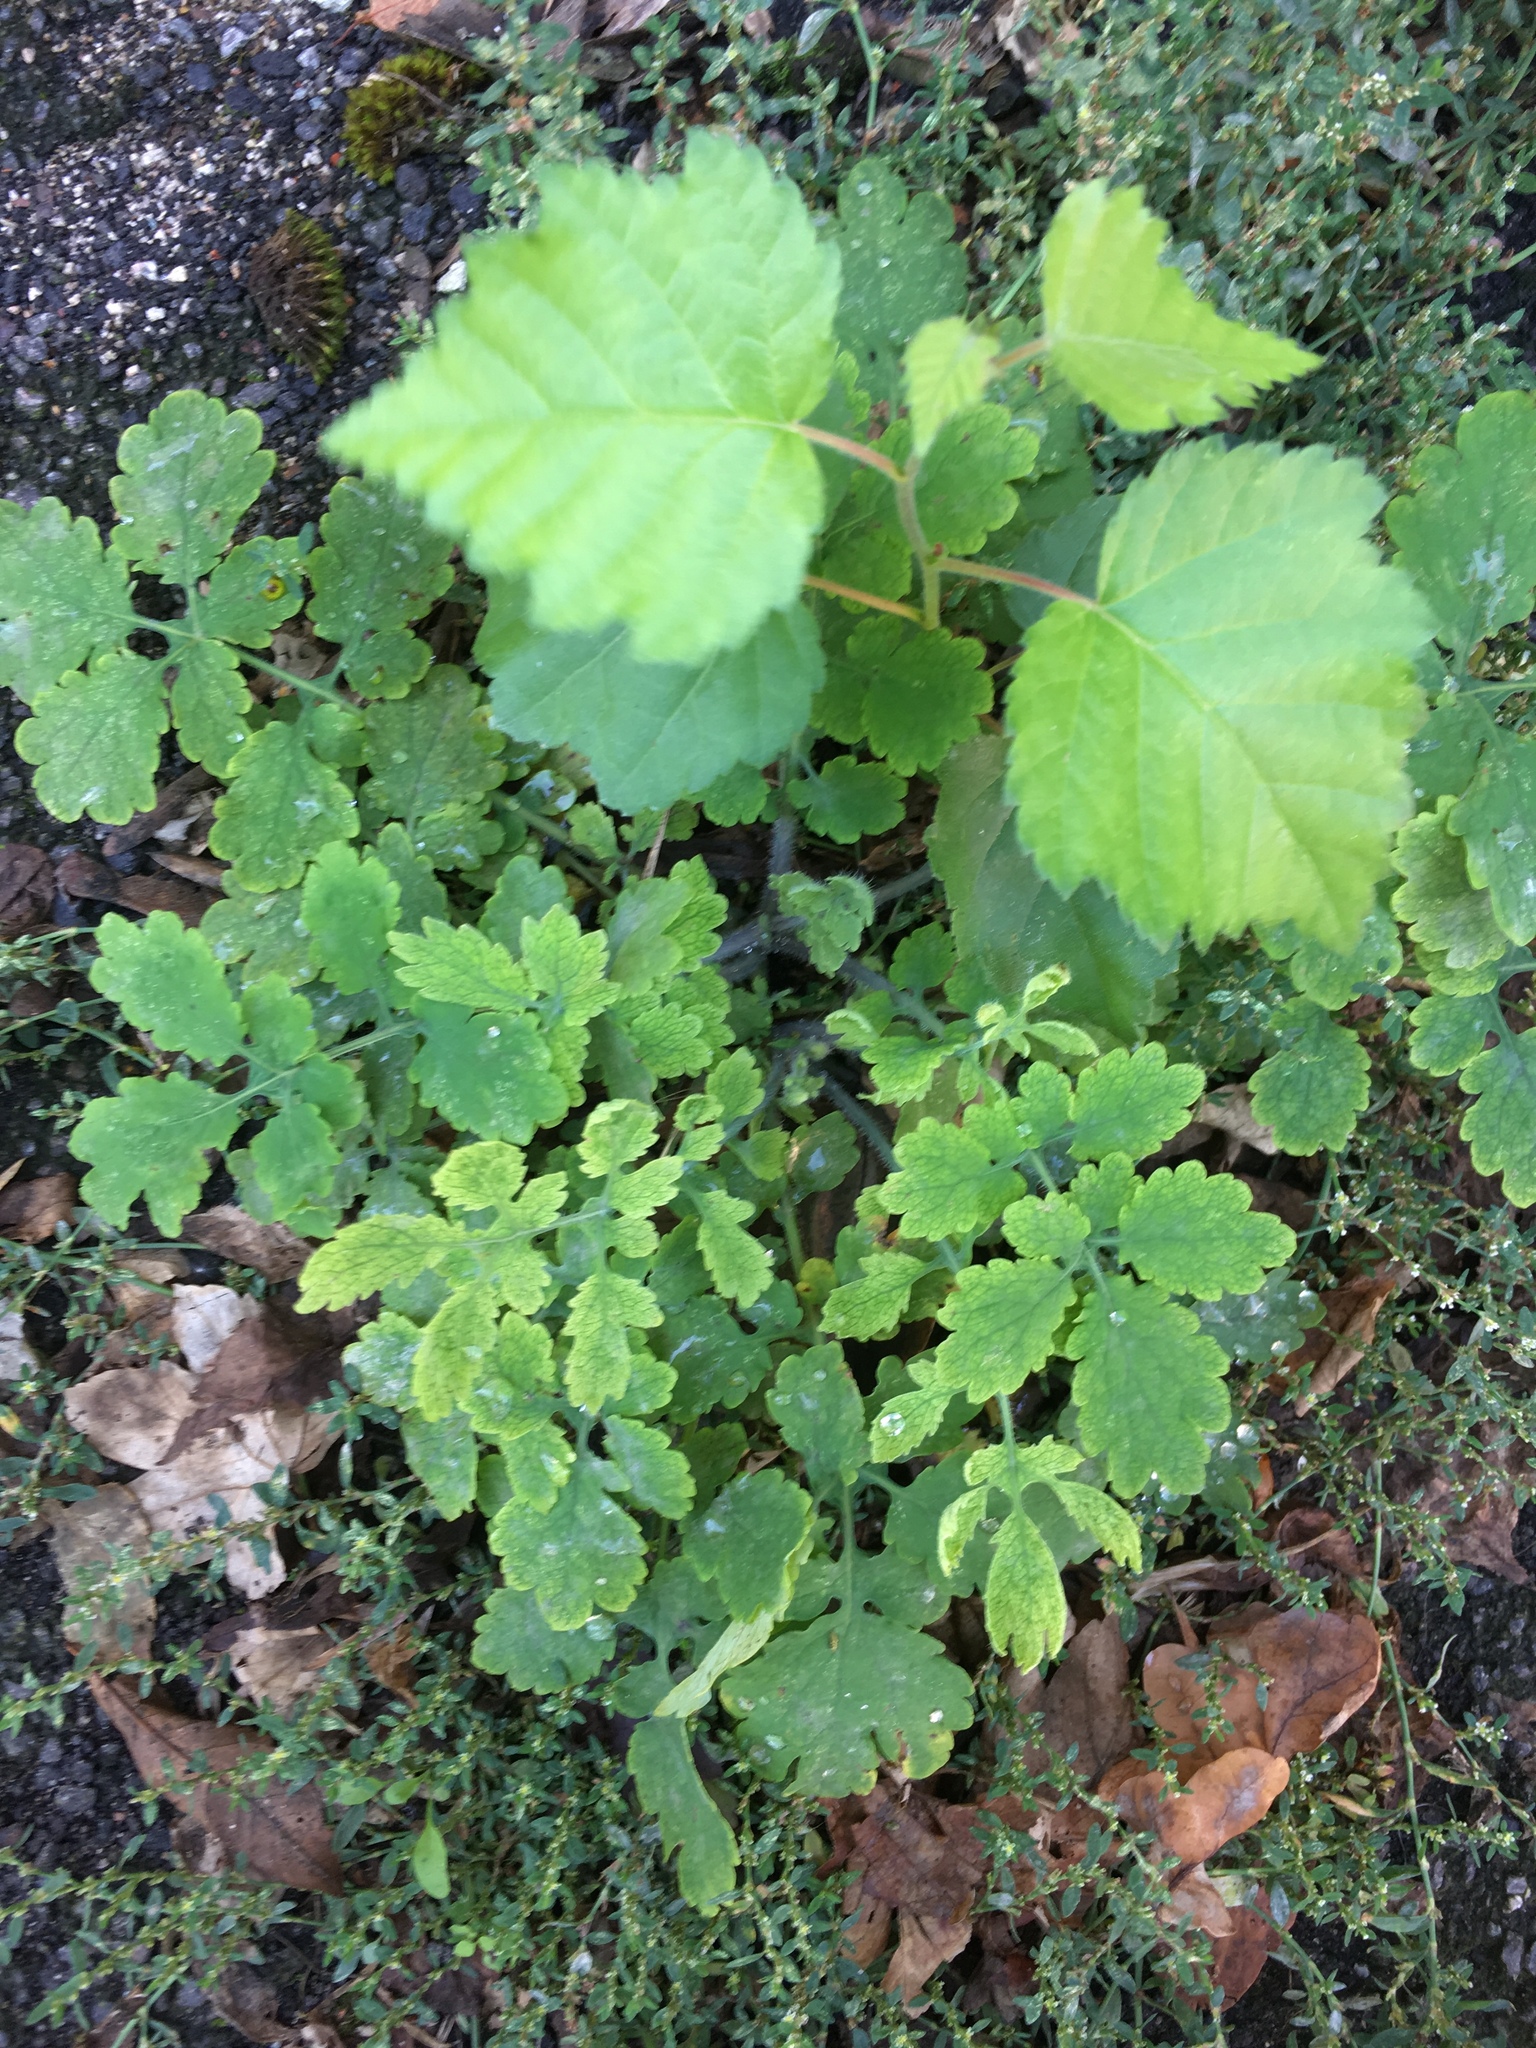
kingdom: Plantae
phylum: Tracheophyta
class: Magnoliopsida
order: Ranunculales
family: Papaveraceae
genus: Chelidonium
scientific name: Chelidonium majus
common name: Greater celandine
